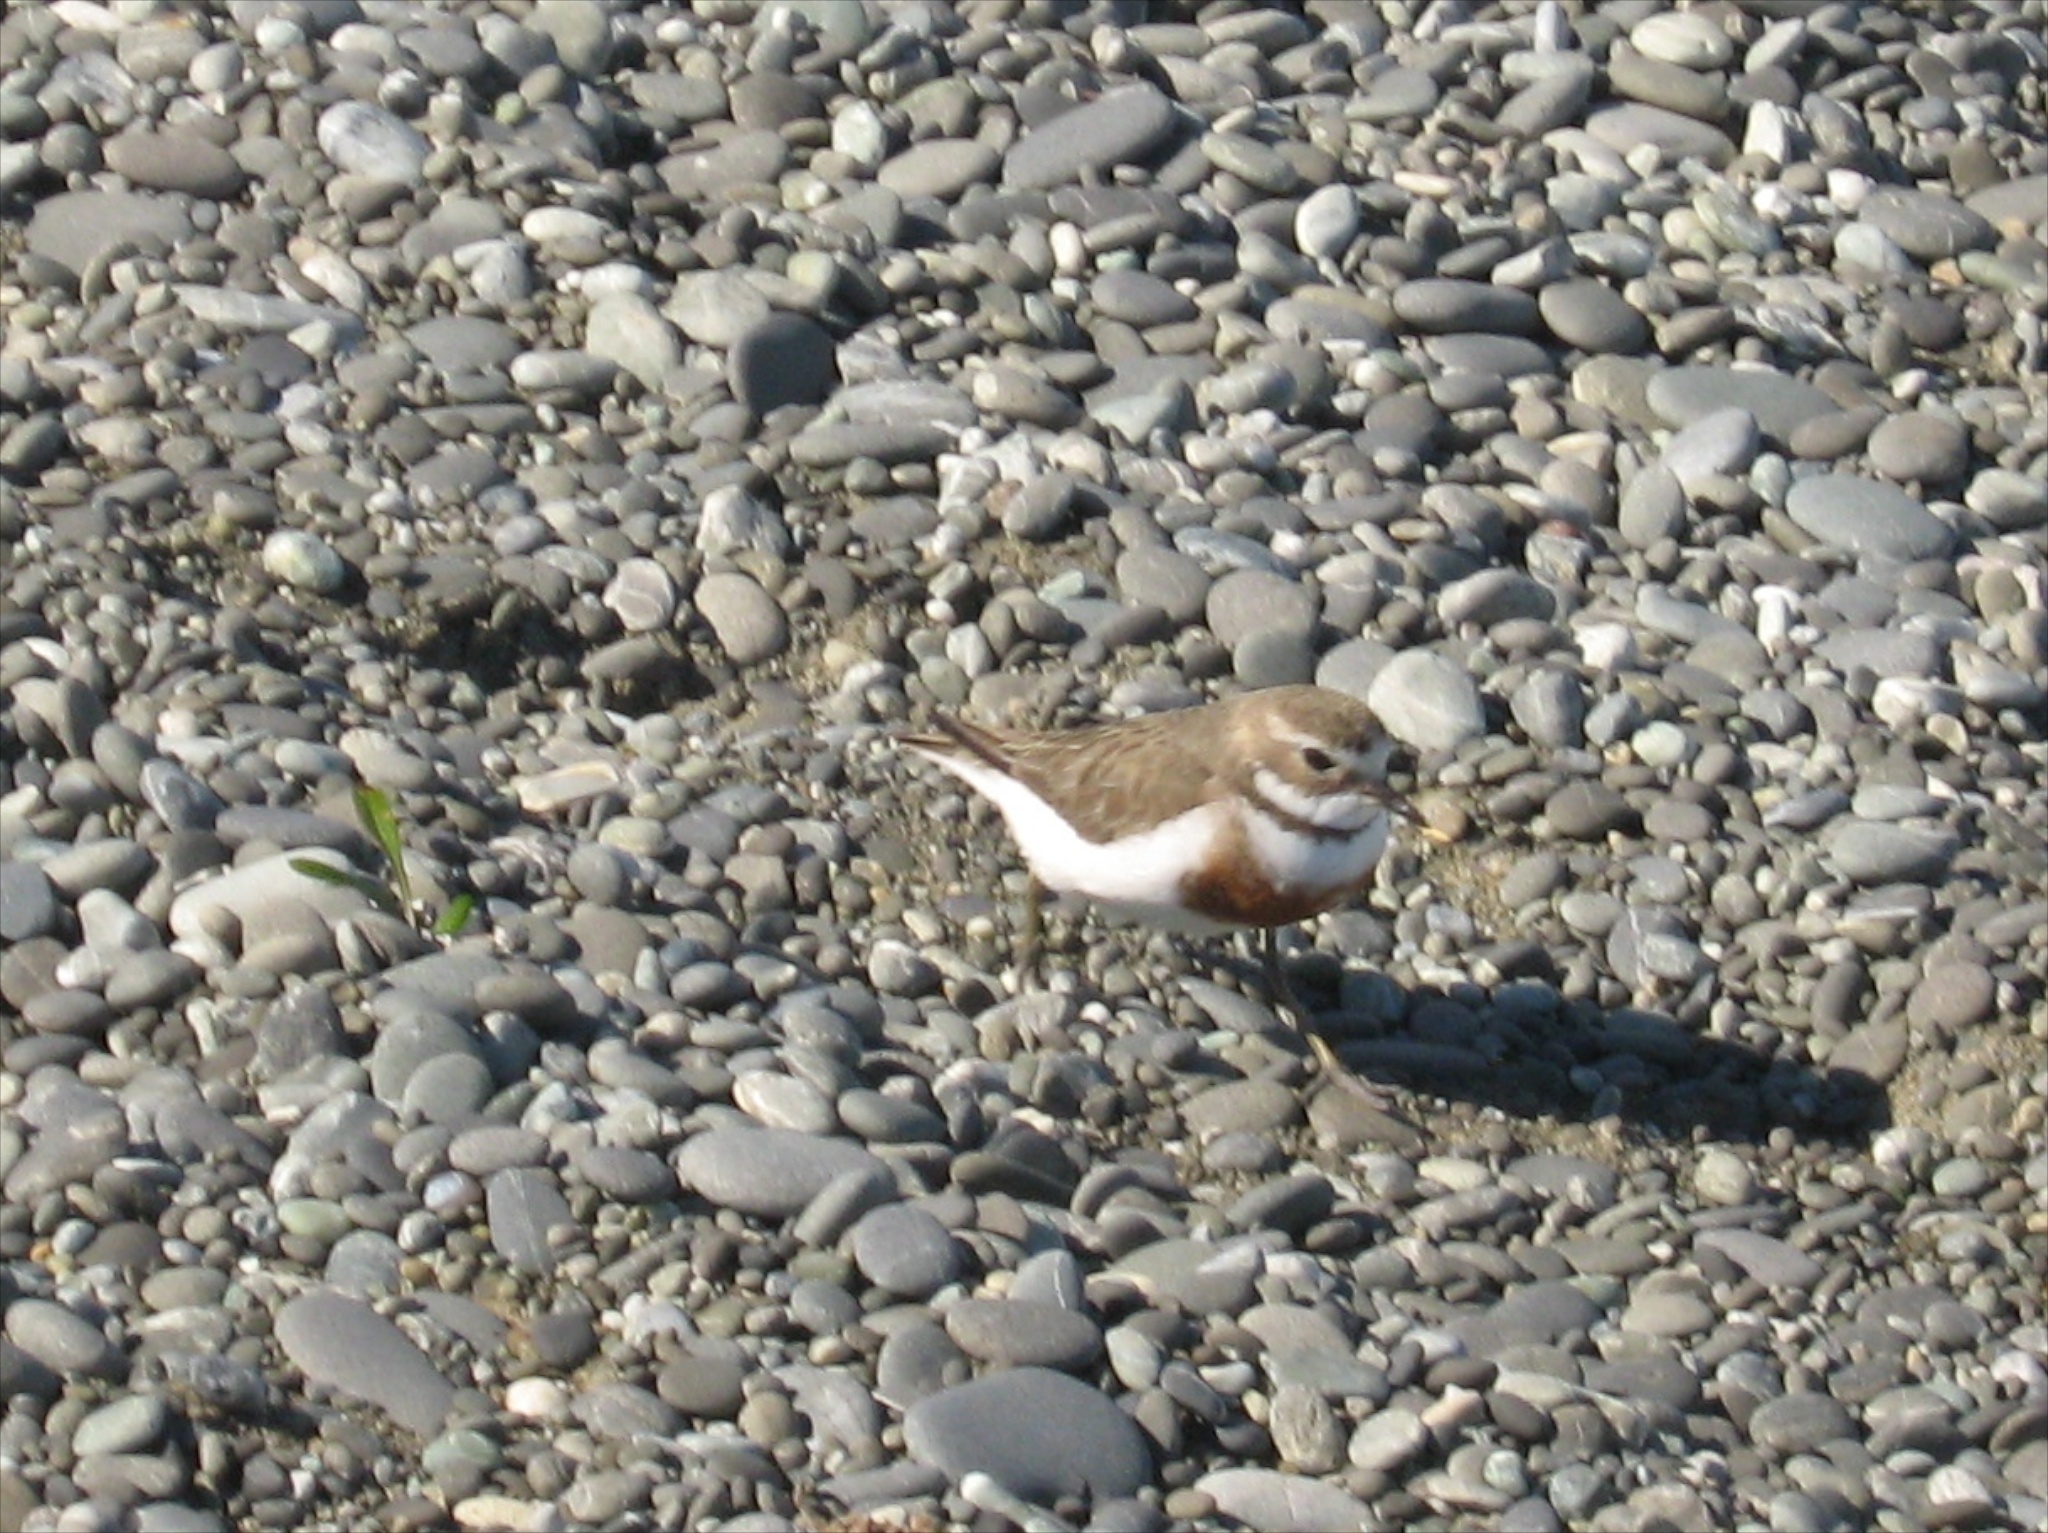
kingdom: Animalia
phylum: Chordata
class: Aves
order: Charadriiformes
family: Charadriidae
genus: Anarhynchus
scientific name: Anarhynchus
